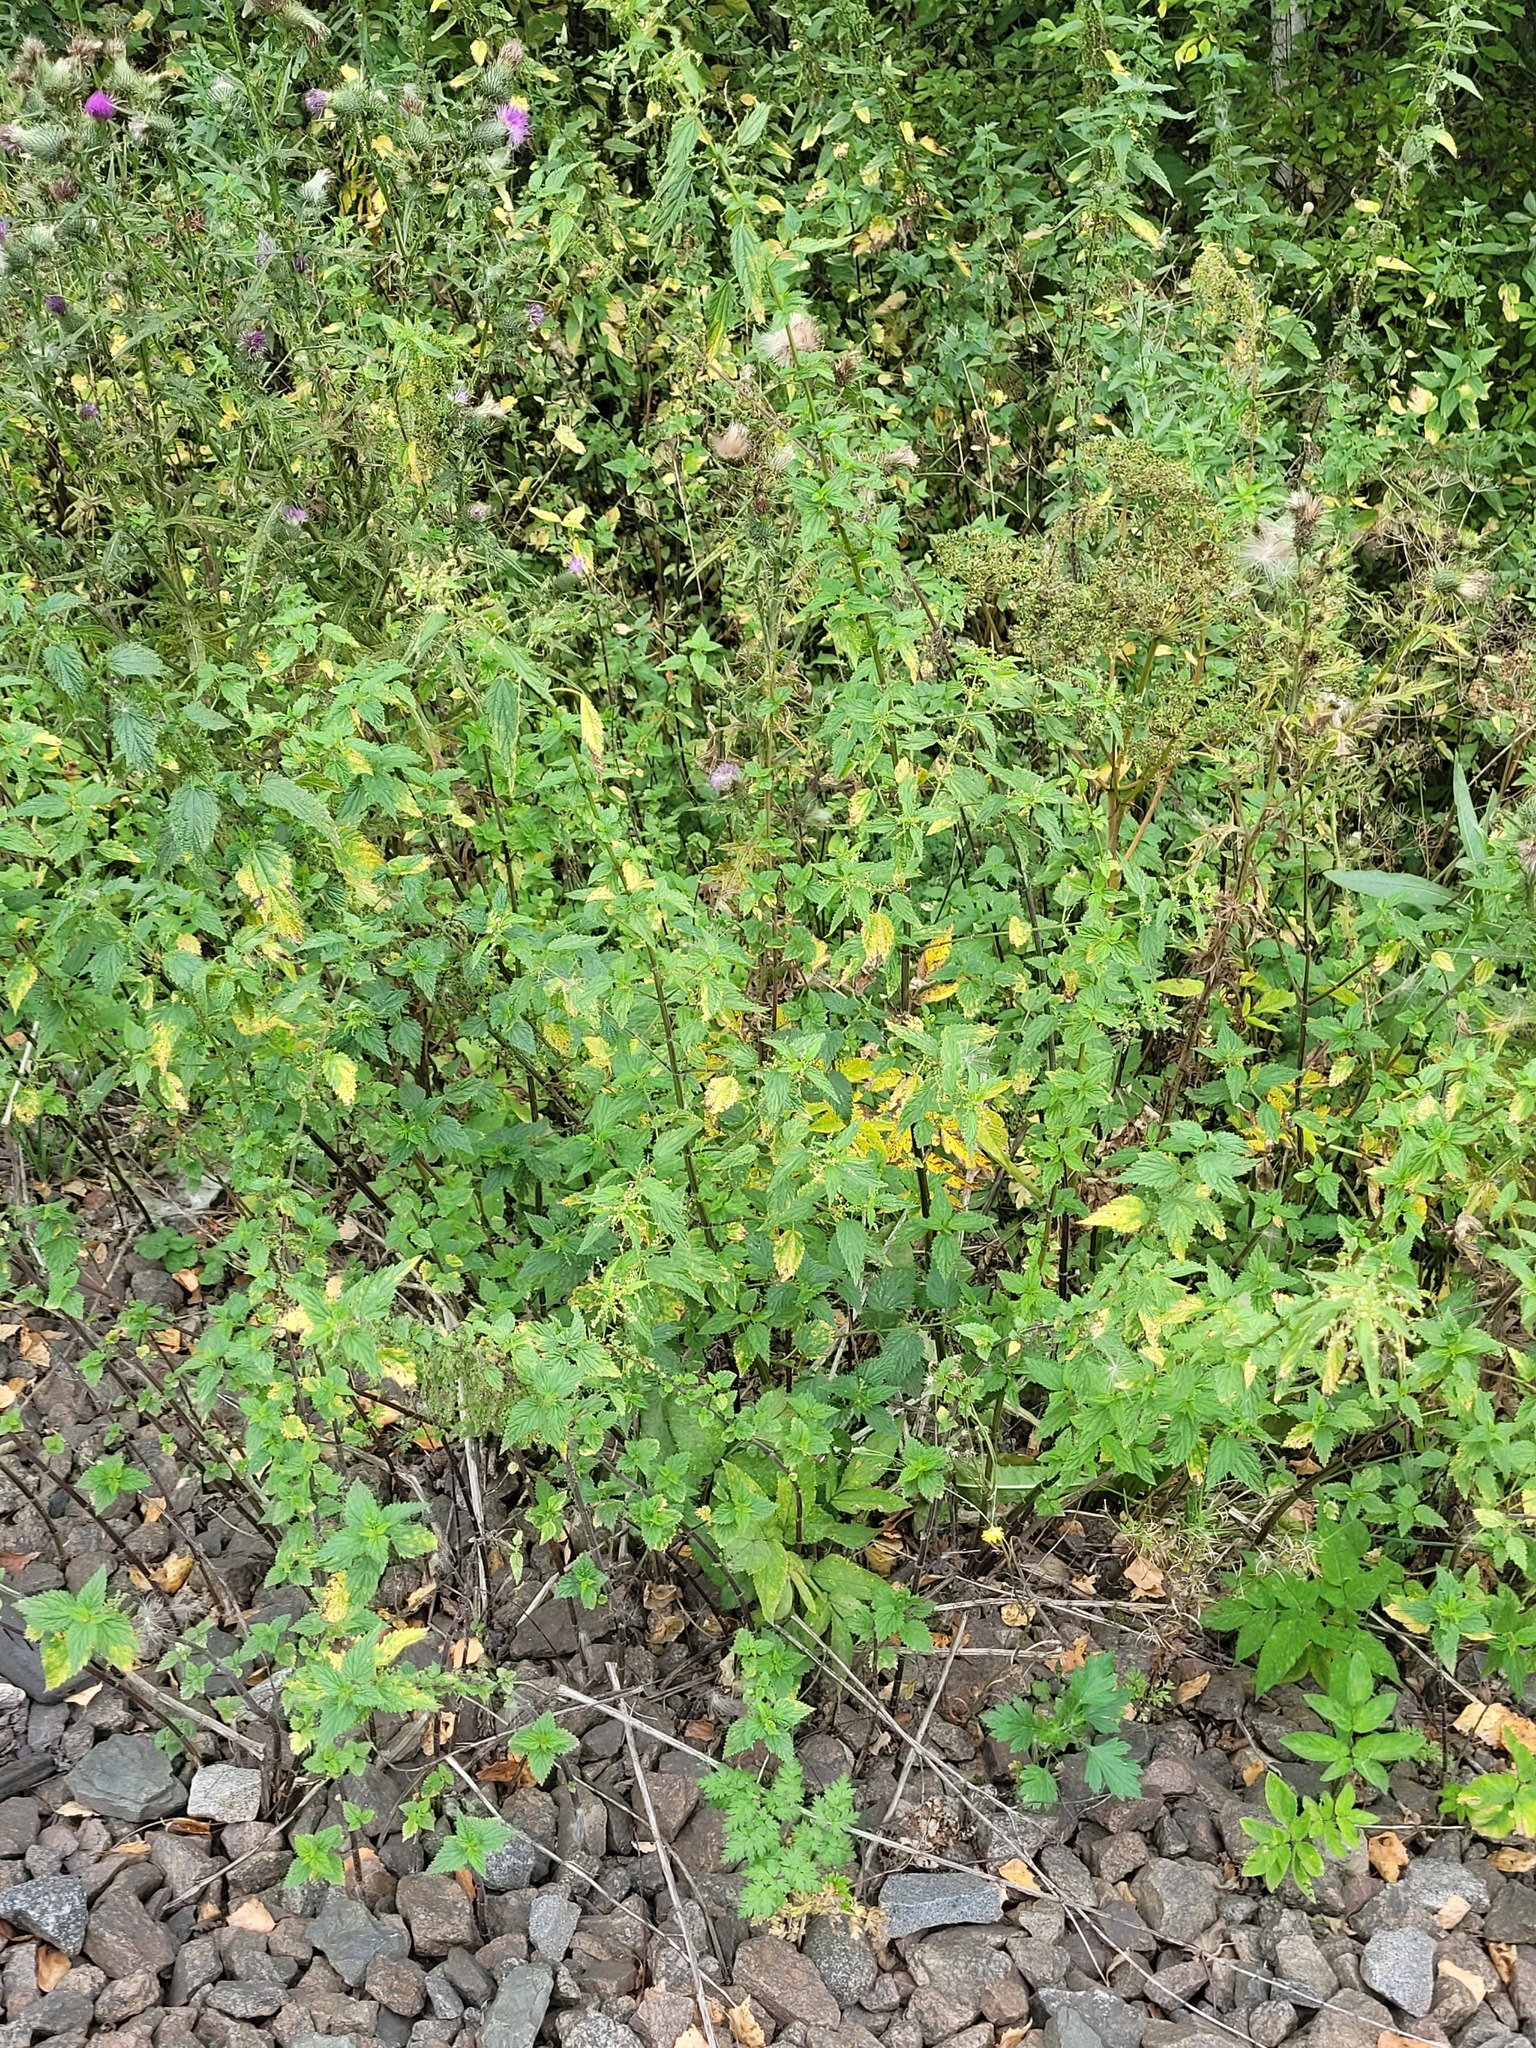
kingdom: Plantae
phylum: Tracheophyta
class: Magnoliopsida
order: Rosales
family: Urticaceae
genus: Urtica
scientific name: Urtica dioica
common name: Common nettle
